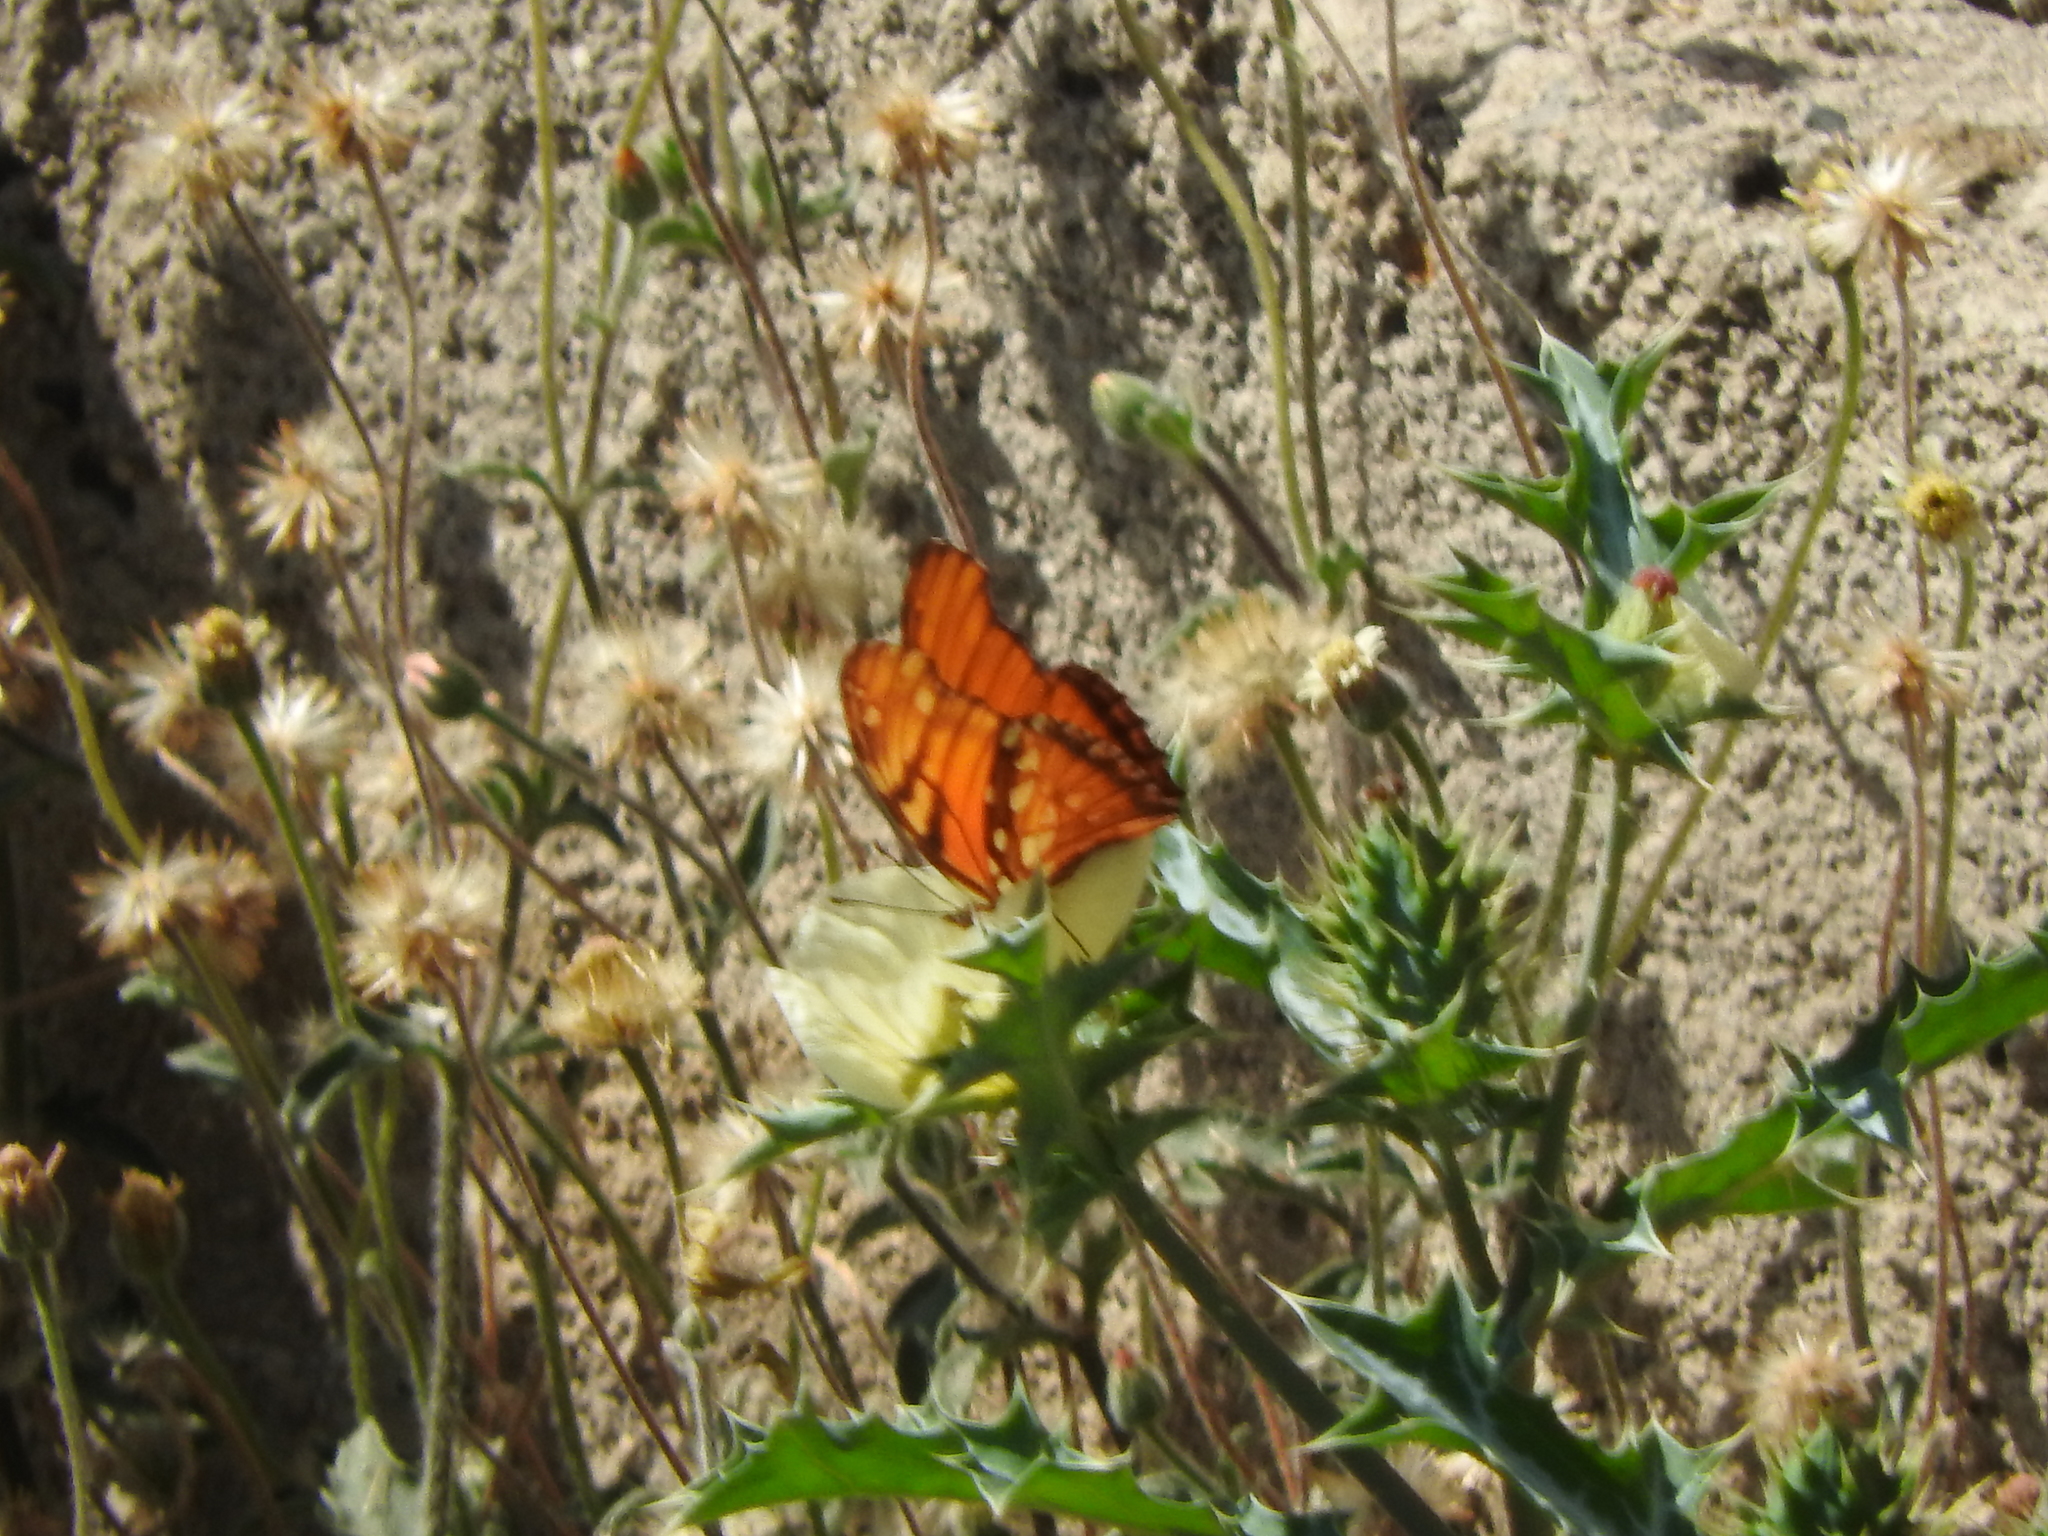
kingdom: Animalia
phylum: Arthropoda
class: Insecta
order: Lepidoptera
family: Nymphalidae
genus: Dione
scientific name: Dione juno
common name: Juno silverspot
